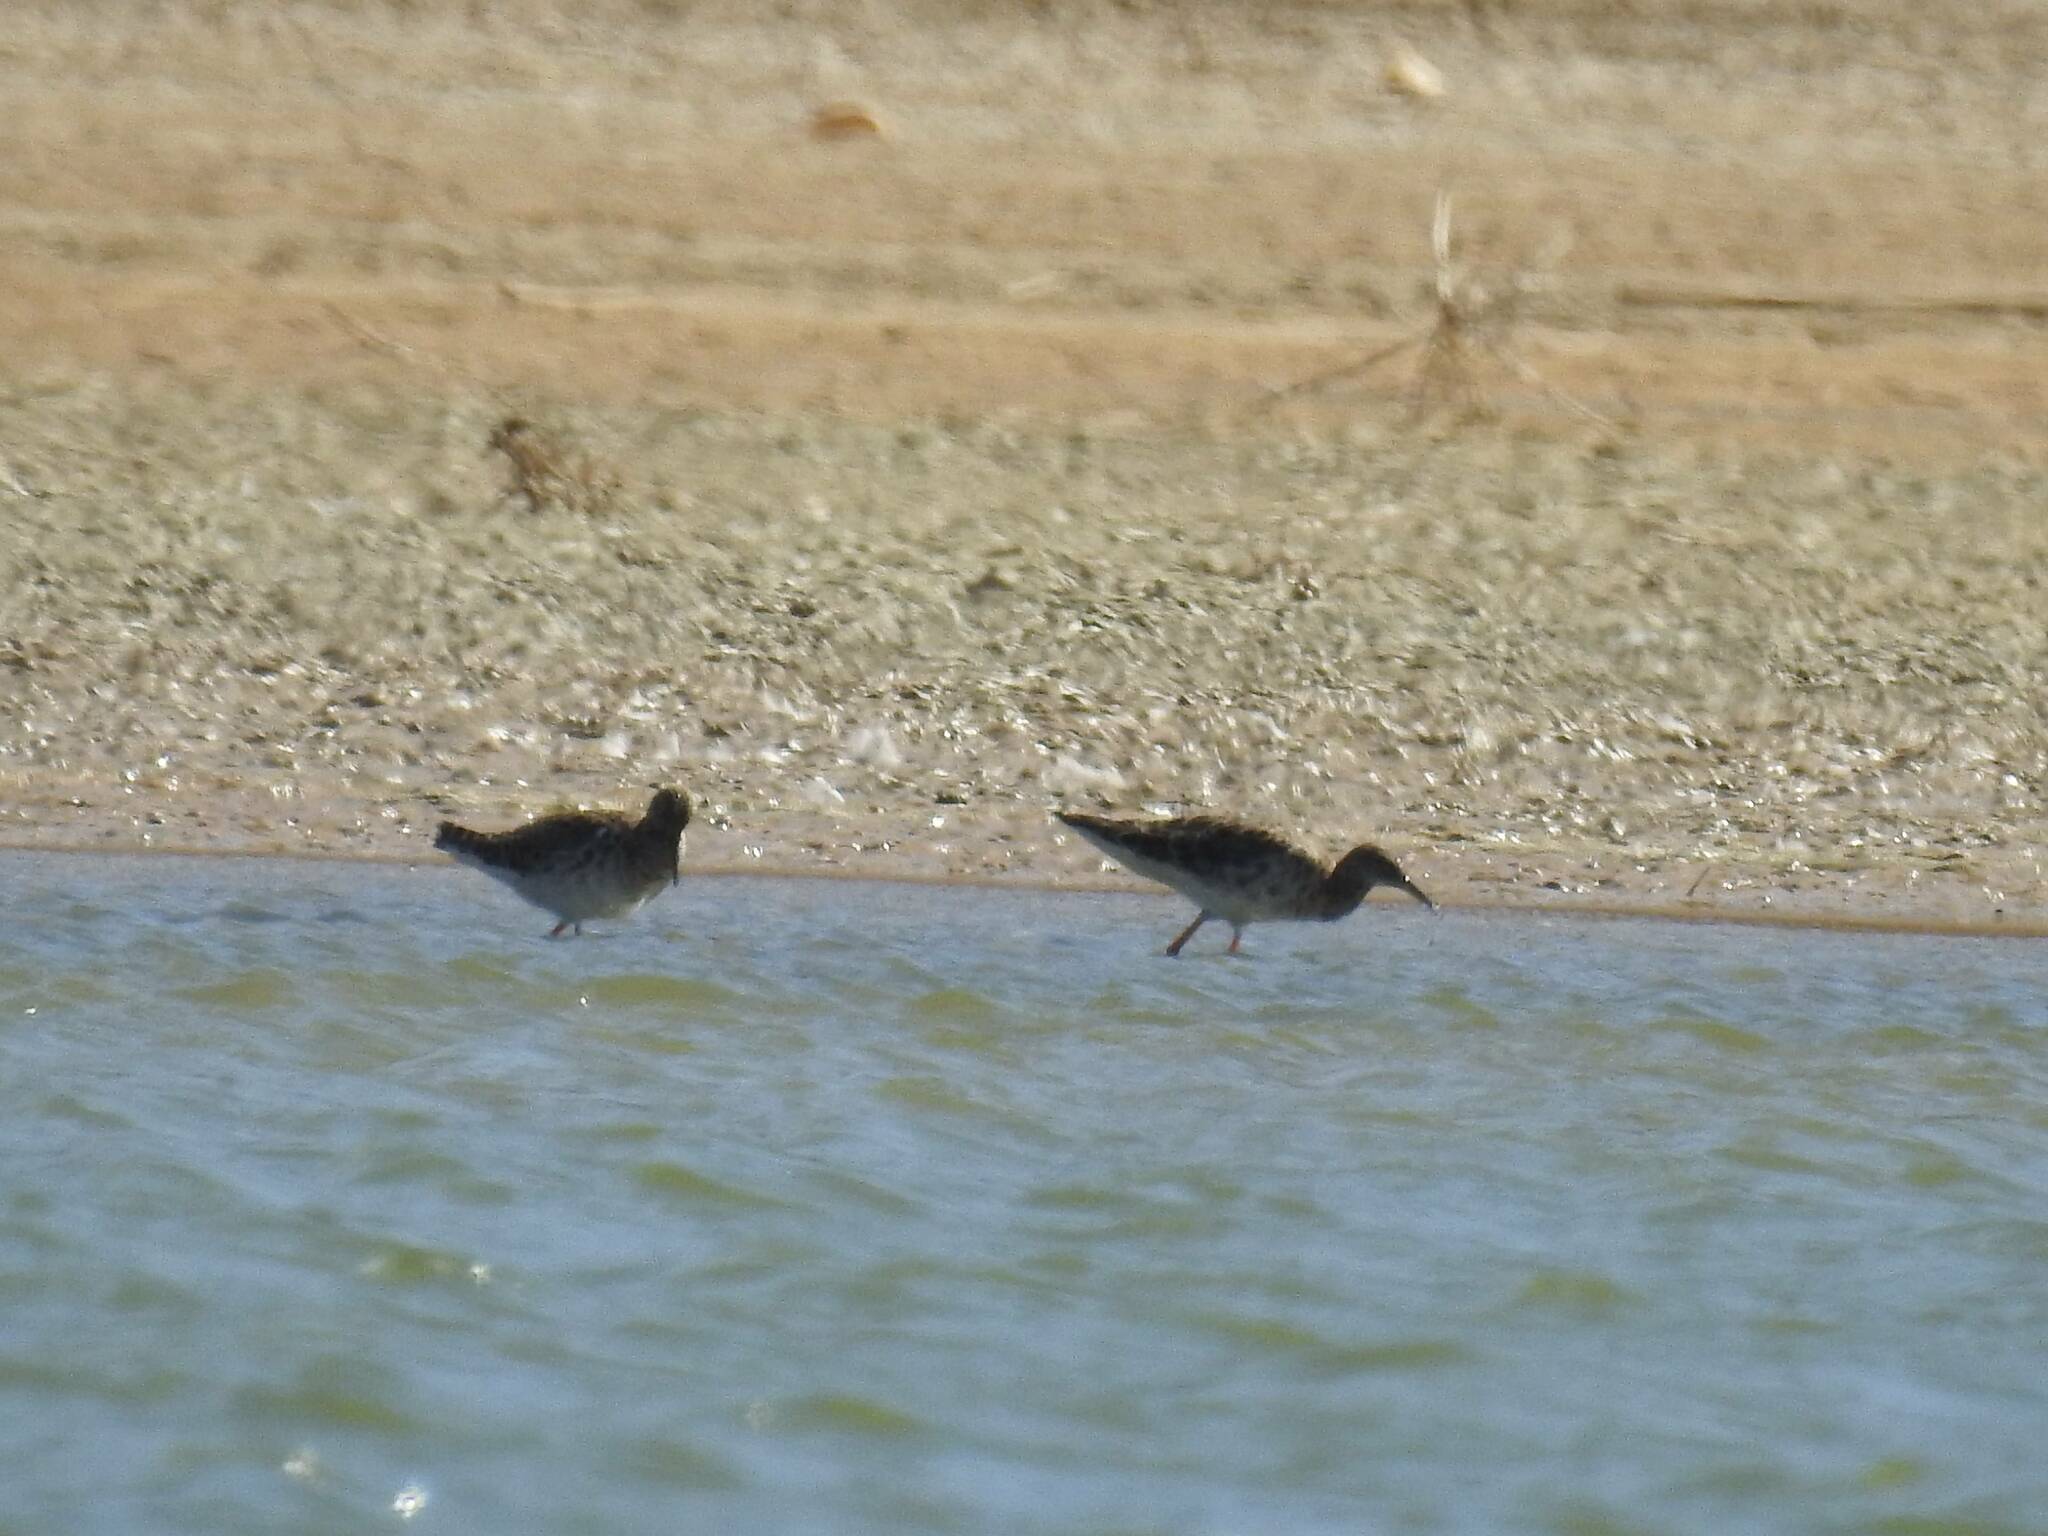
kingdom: Animalia
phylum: Chordata
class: Aves
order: Charadriiformes
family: Scolopacidae
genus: Calidris
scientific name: Calidris pugnax
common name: Ruff
